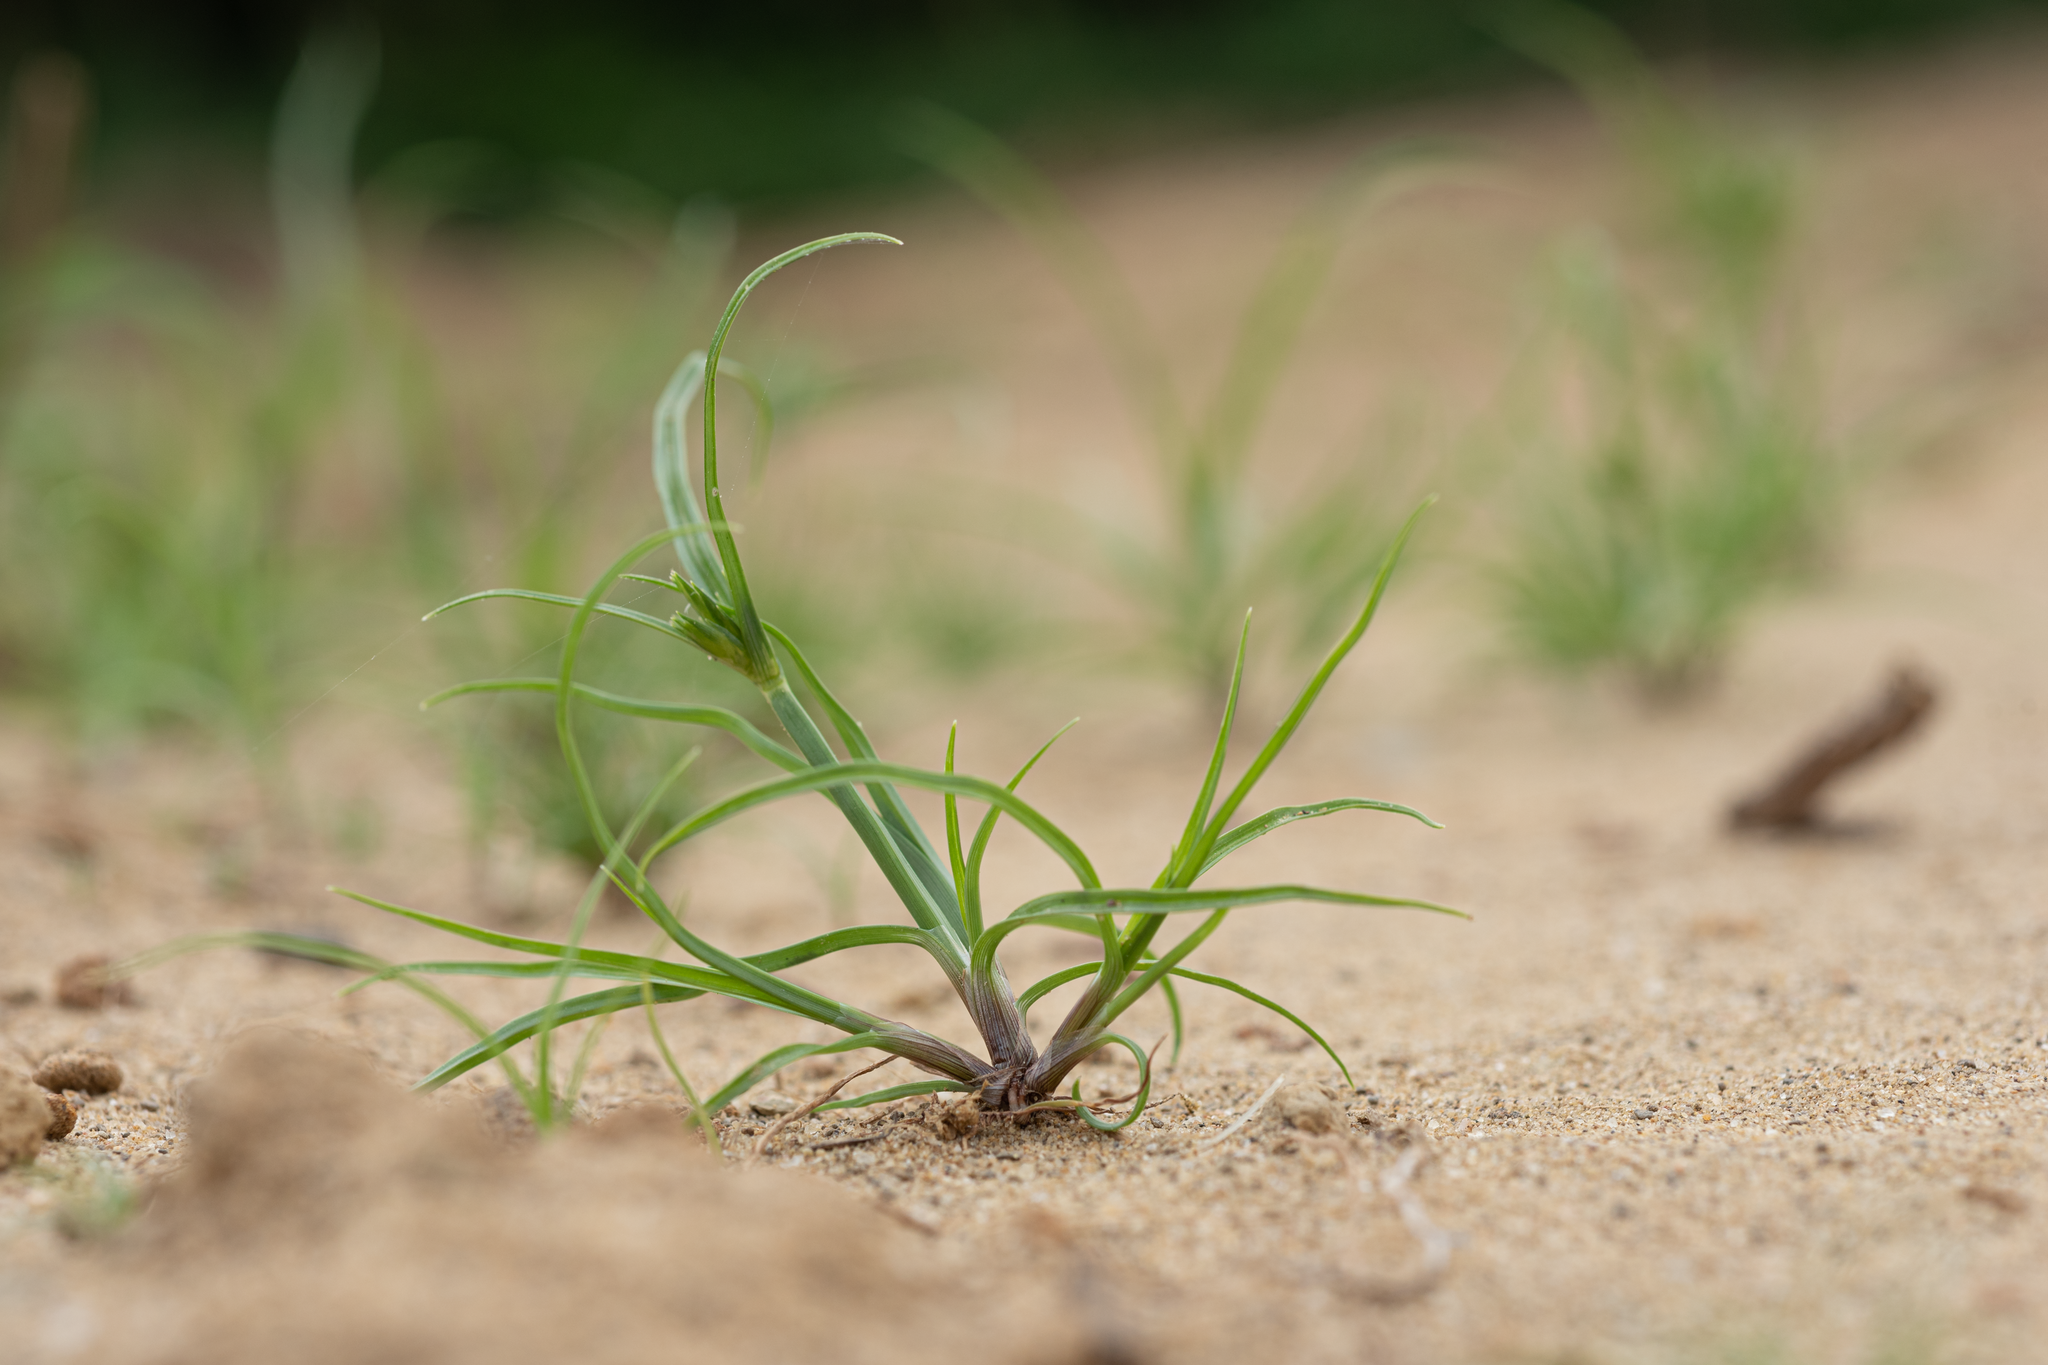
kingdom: Plantae
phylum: Tracheophyta
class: Liliopsida
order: Poales
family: Cyperaceae
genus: Cyperus
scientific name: Cyperus compressus
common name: Poorland flatsedge
